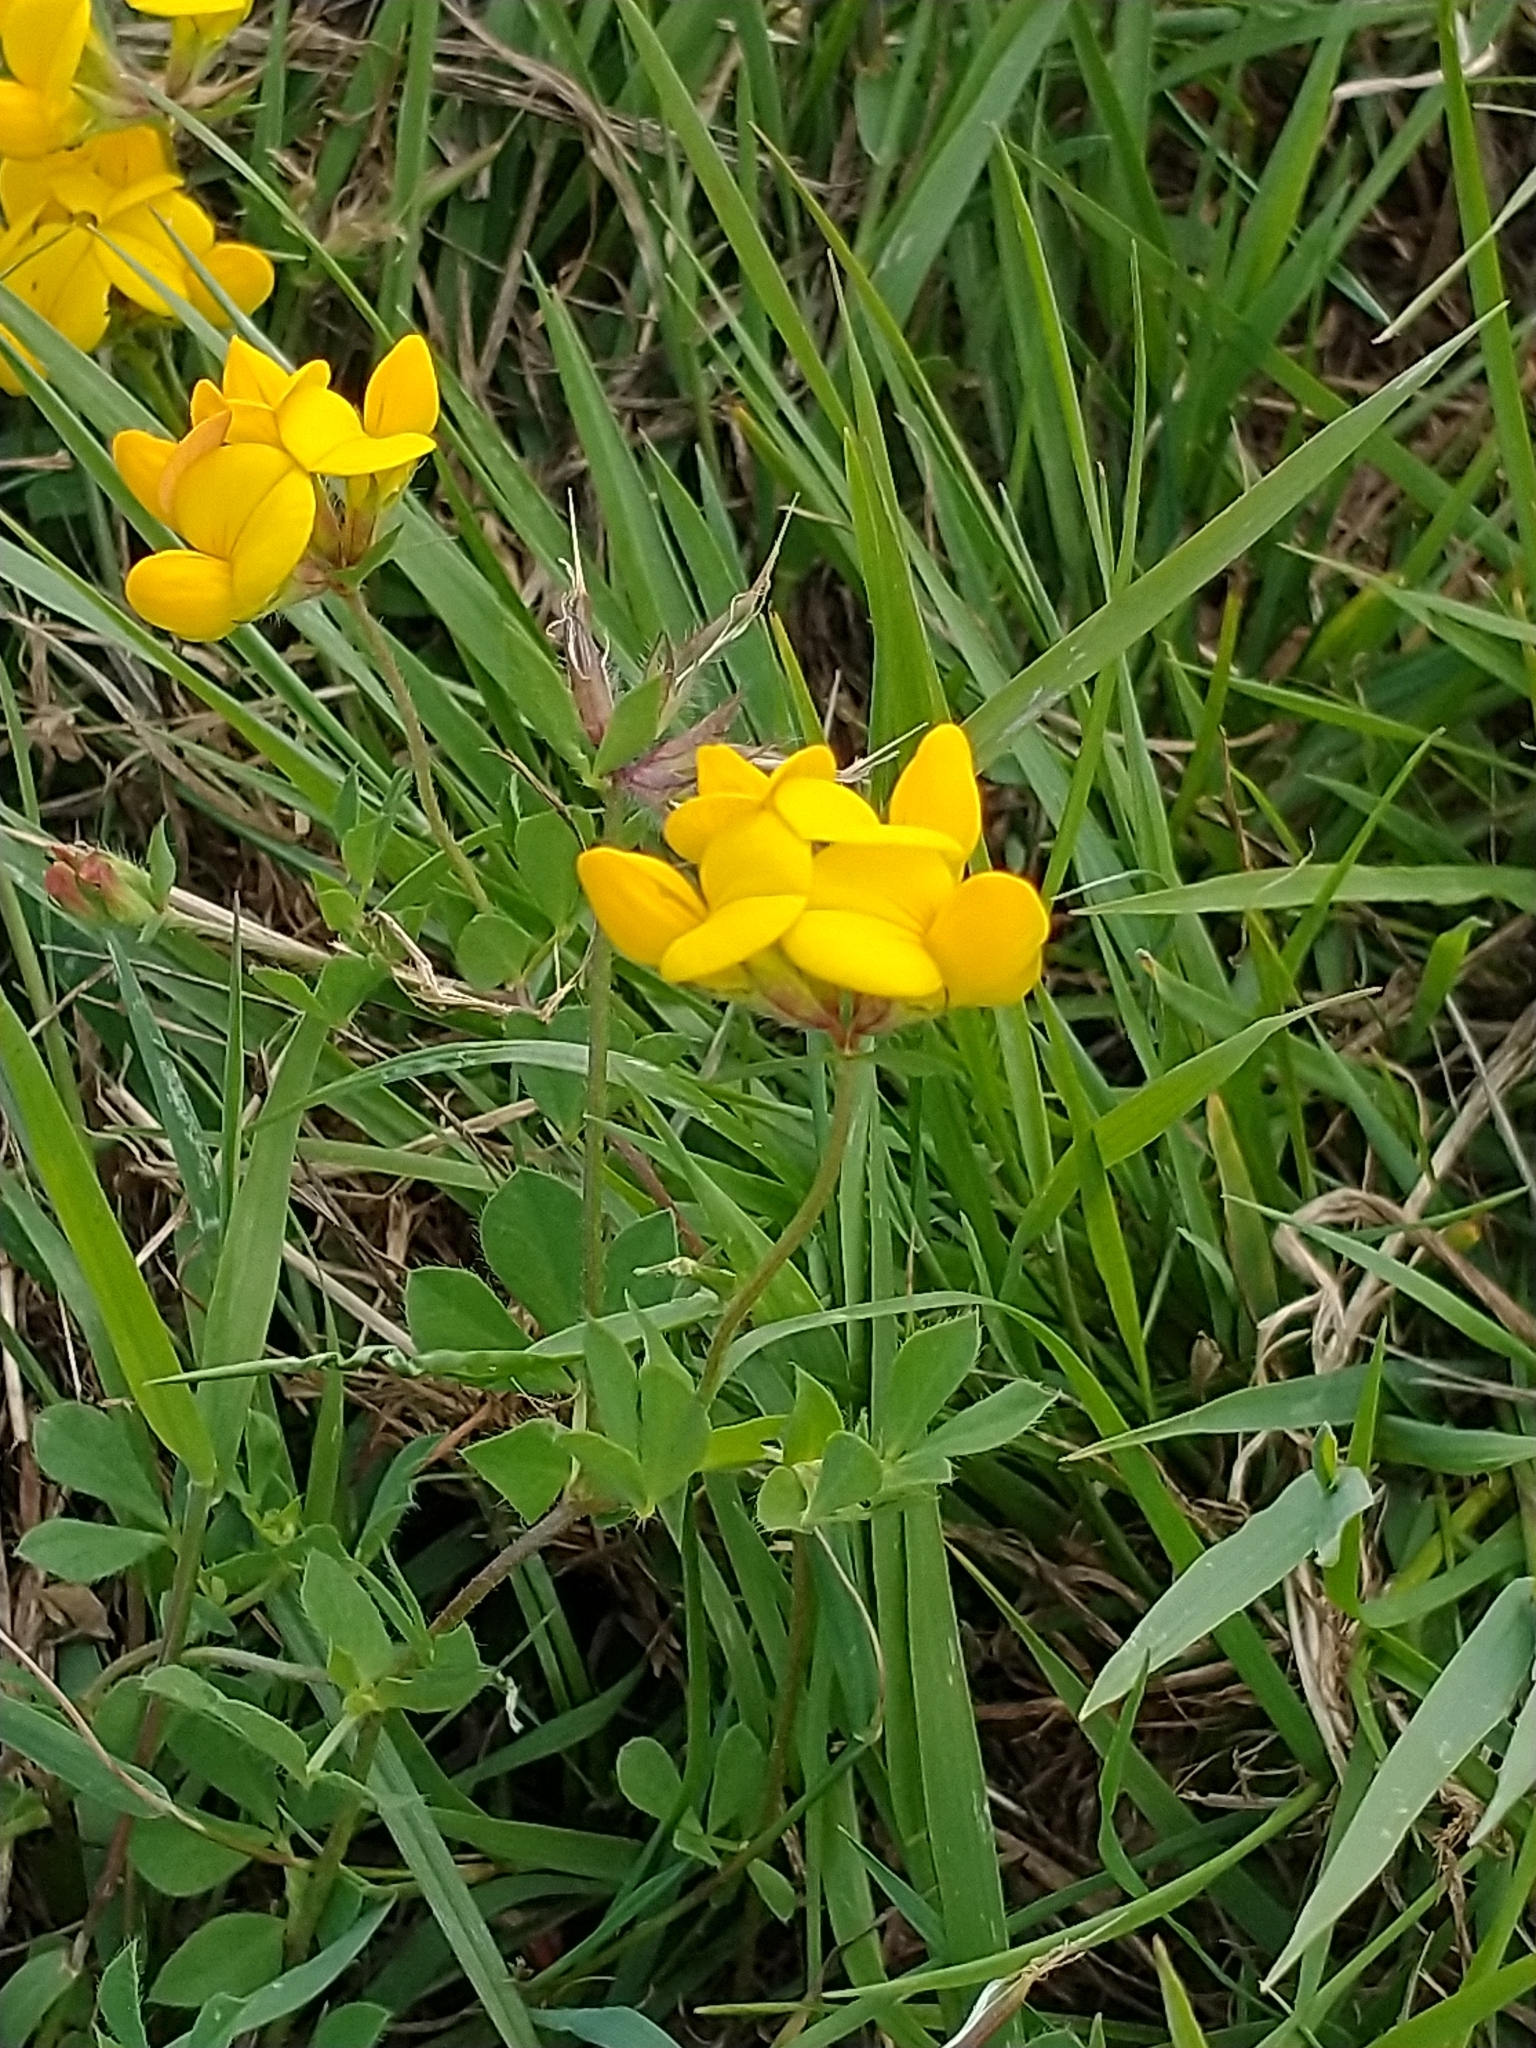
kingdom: Plantae
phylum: Tracheophyta
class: Magnoliopsida
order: Fabales
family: Fabaceae
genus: Lotus
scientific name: Lotus corniculatus
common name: Common bird's-foot-trefoil
